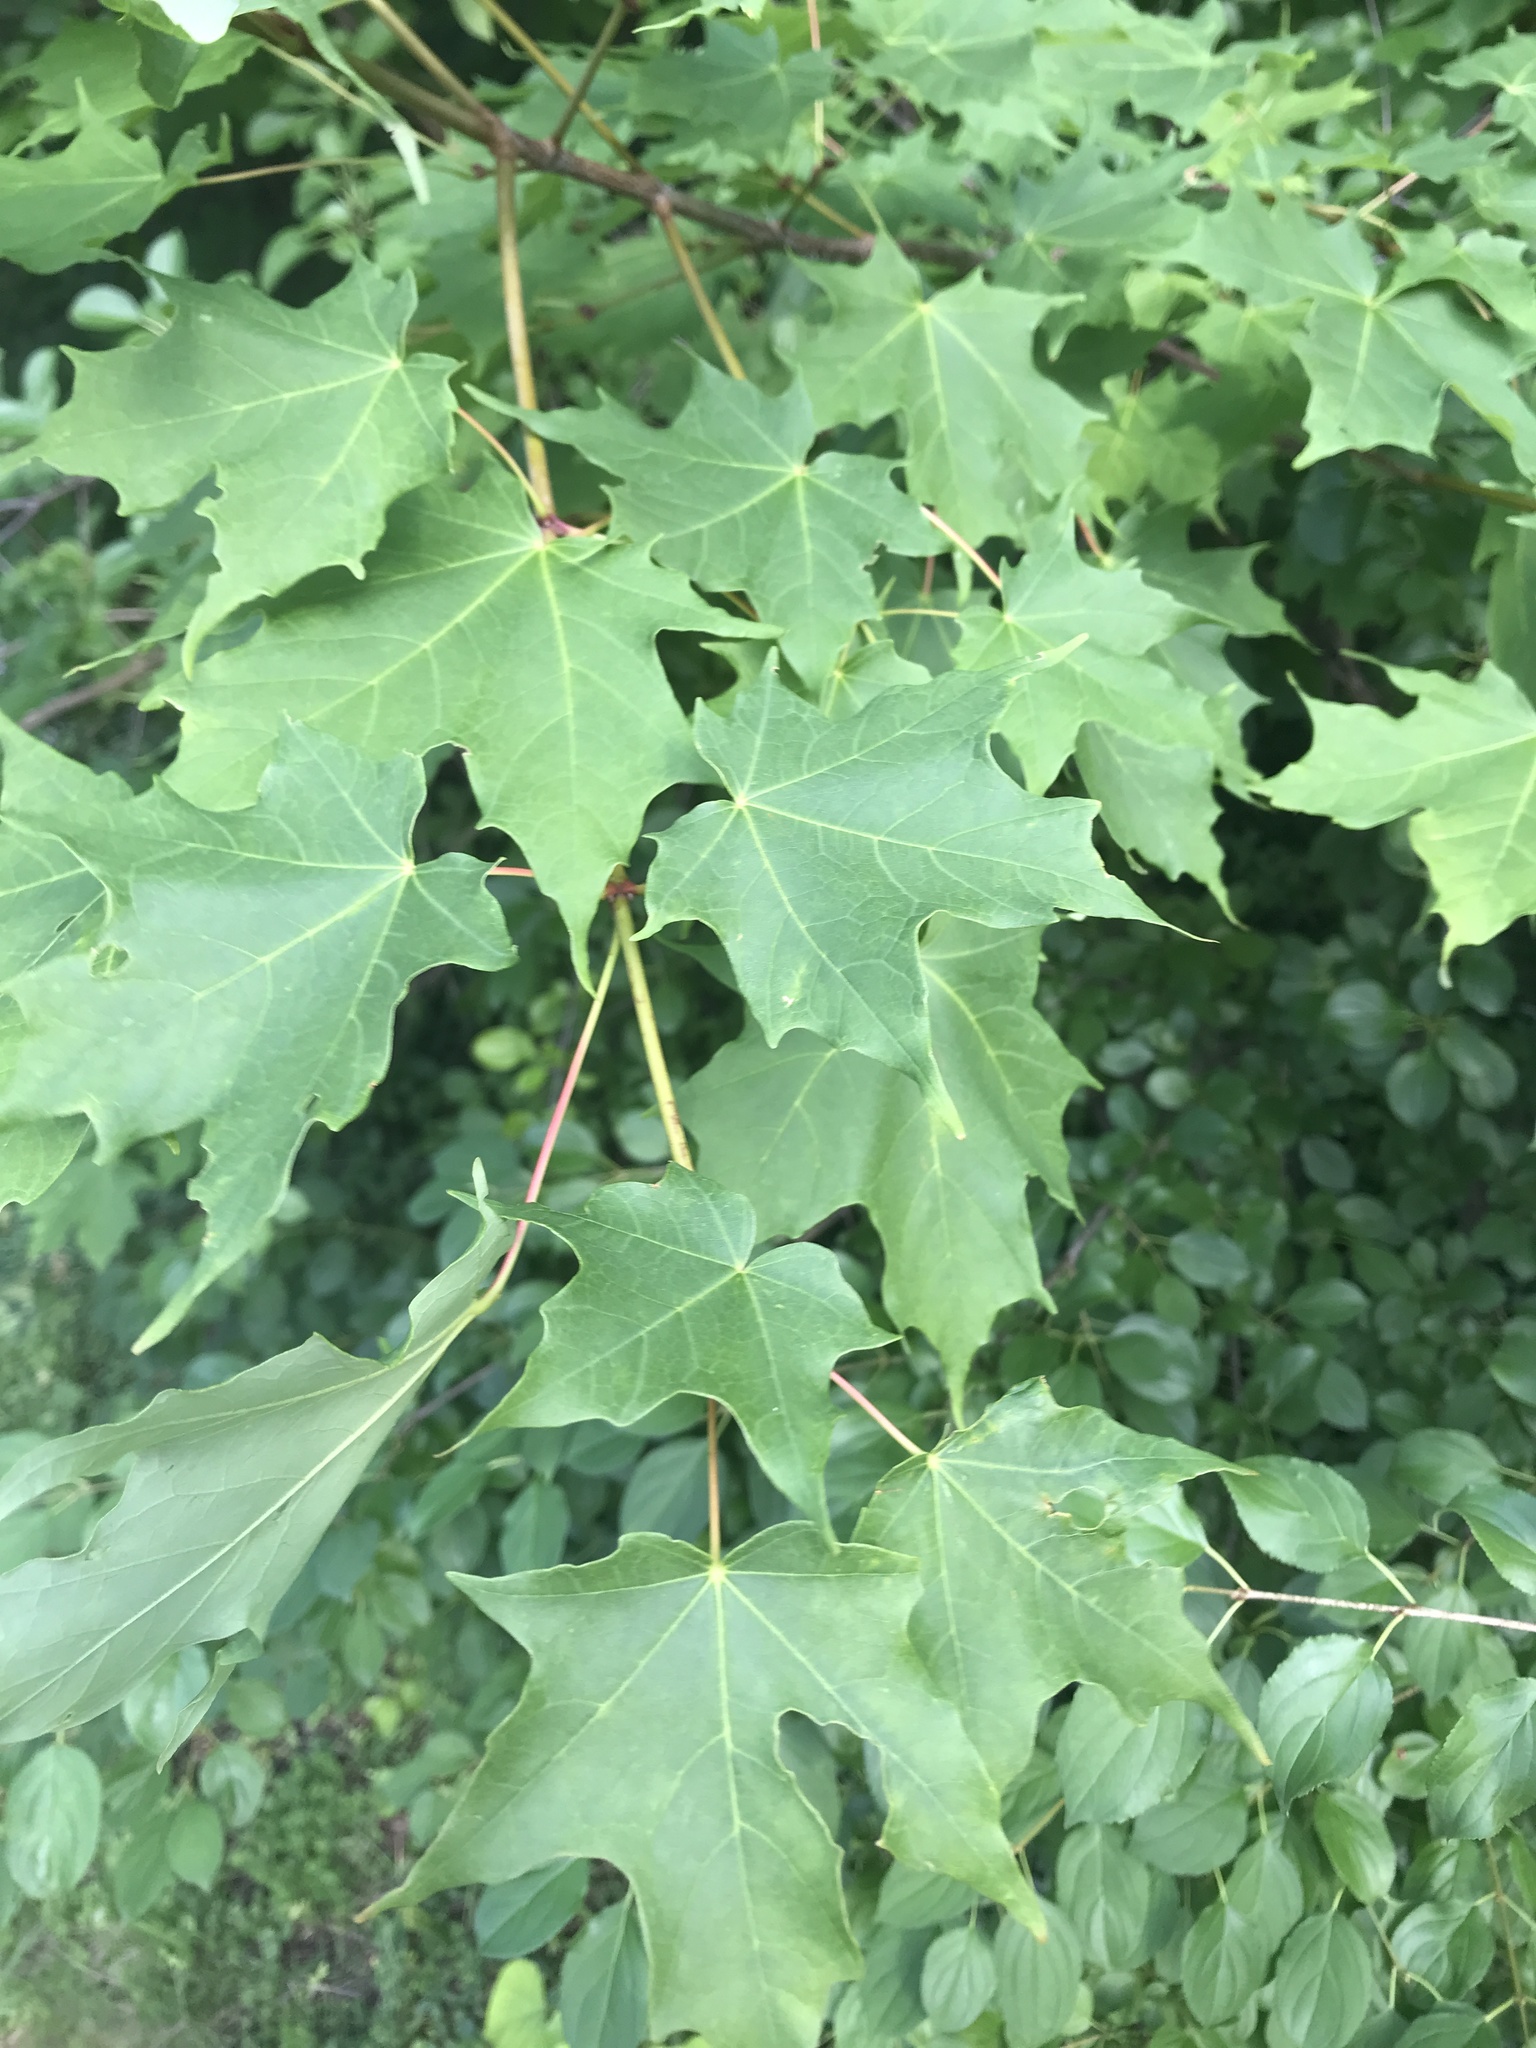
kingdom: Plantae
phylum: Tracheophyta
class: Magnoliopsida
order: Sapindales
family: Sapindaceae
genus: Acer
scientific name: Acer saccharum
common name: Sugar maple
